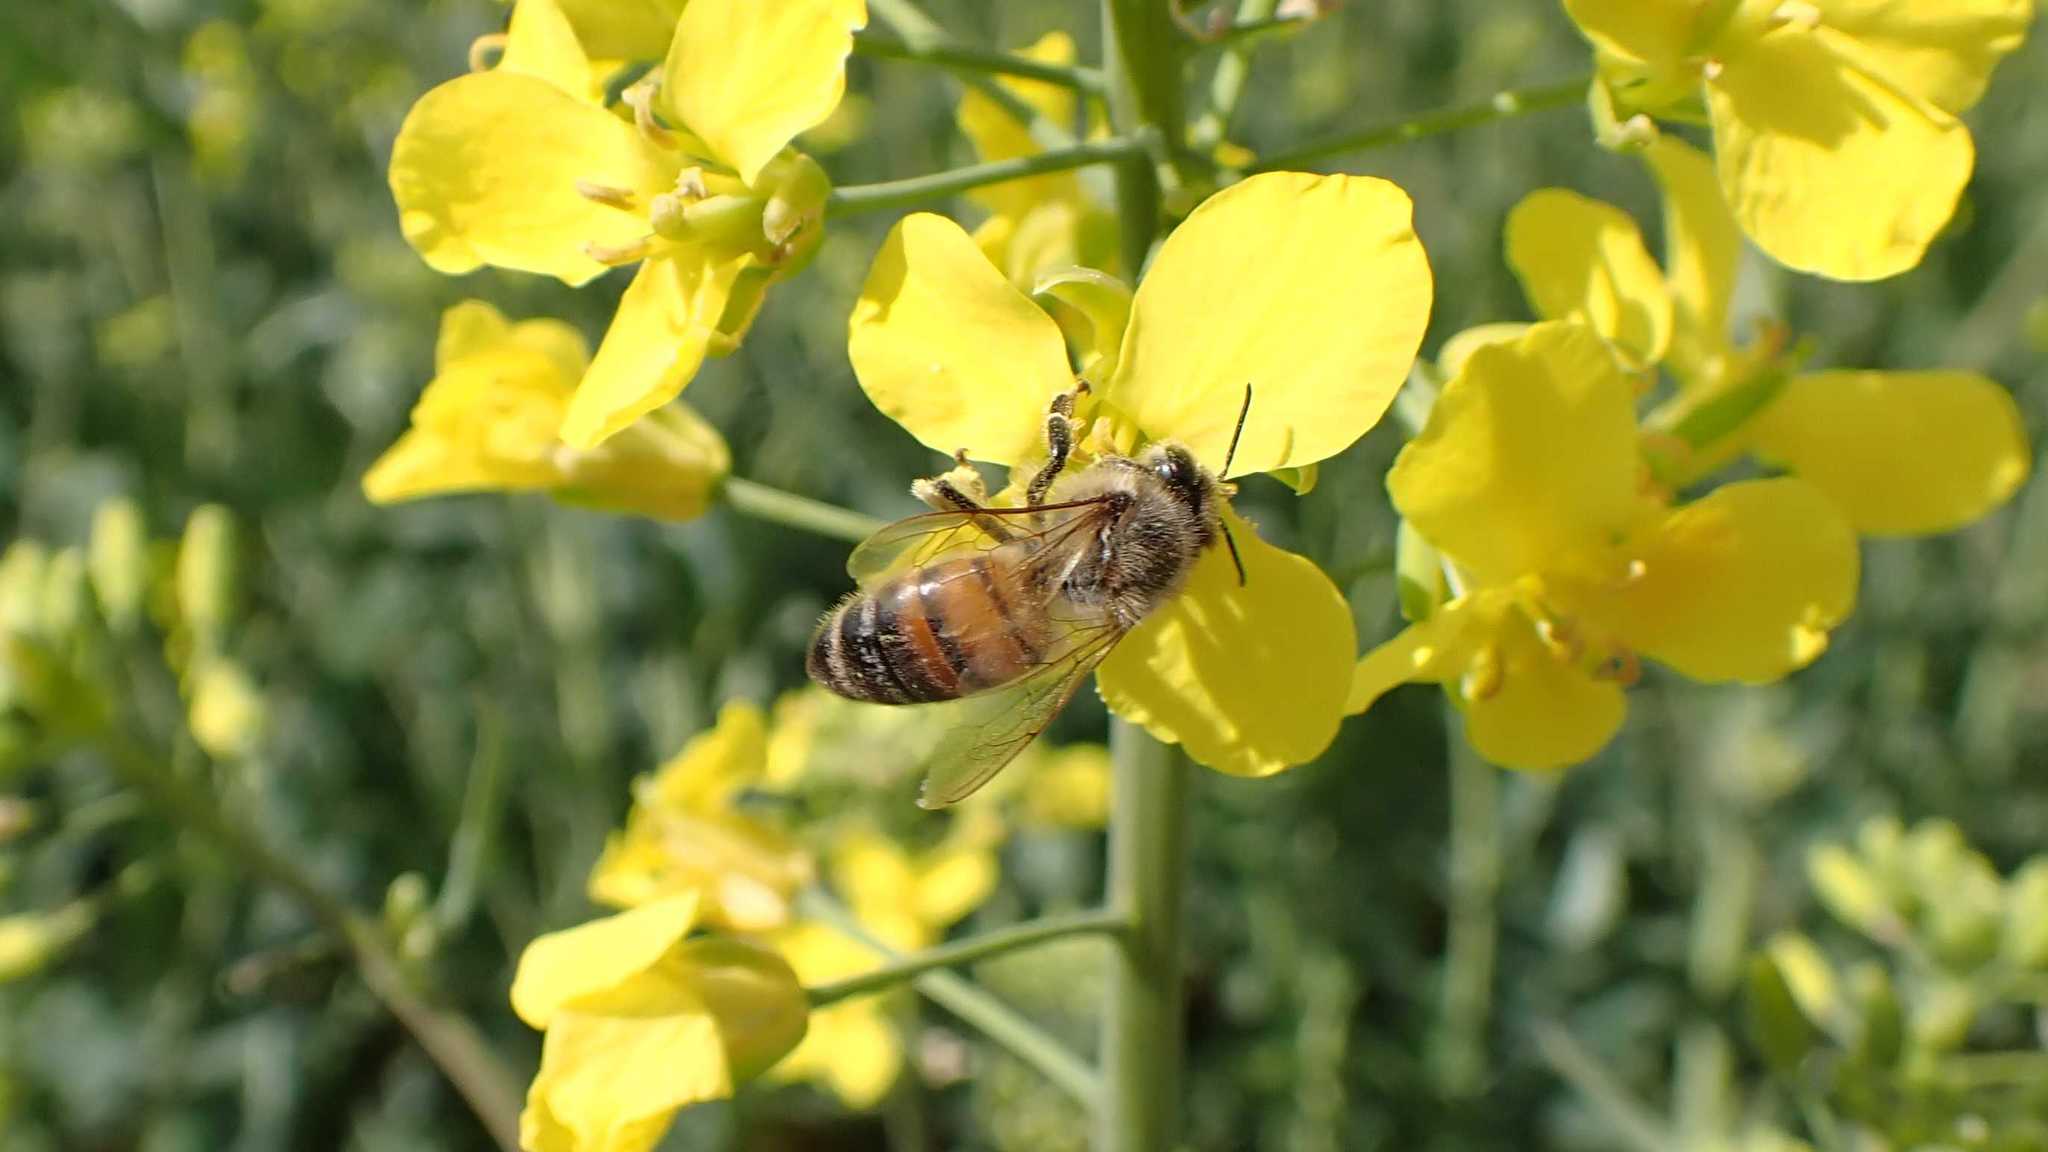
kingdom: Animalia
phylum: Arthropoda
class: Insecta
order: Hymenoptera
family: Apidae
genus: Apis
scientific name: Apis mellifera
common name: Honey bee
